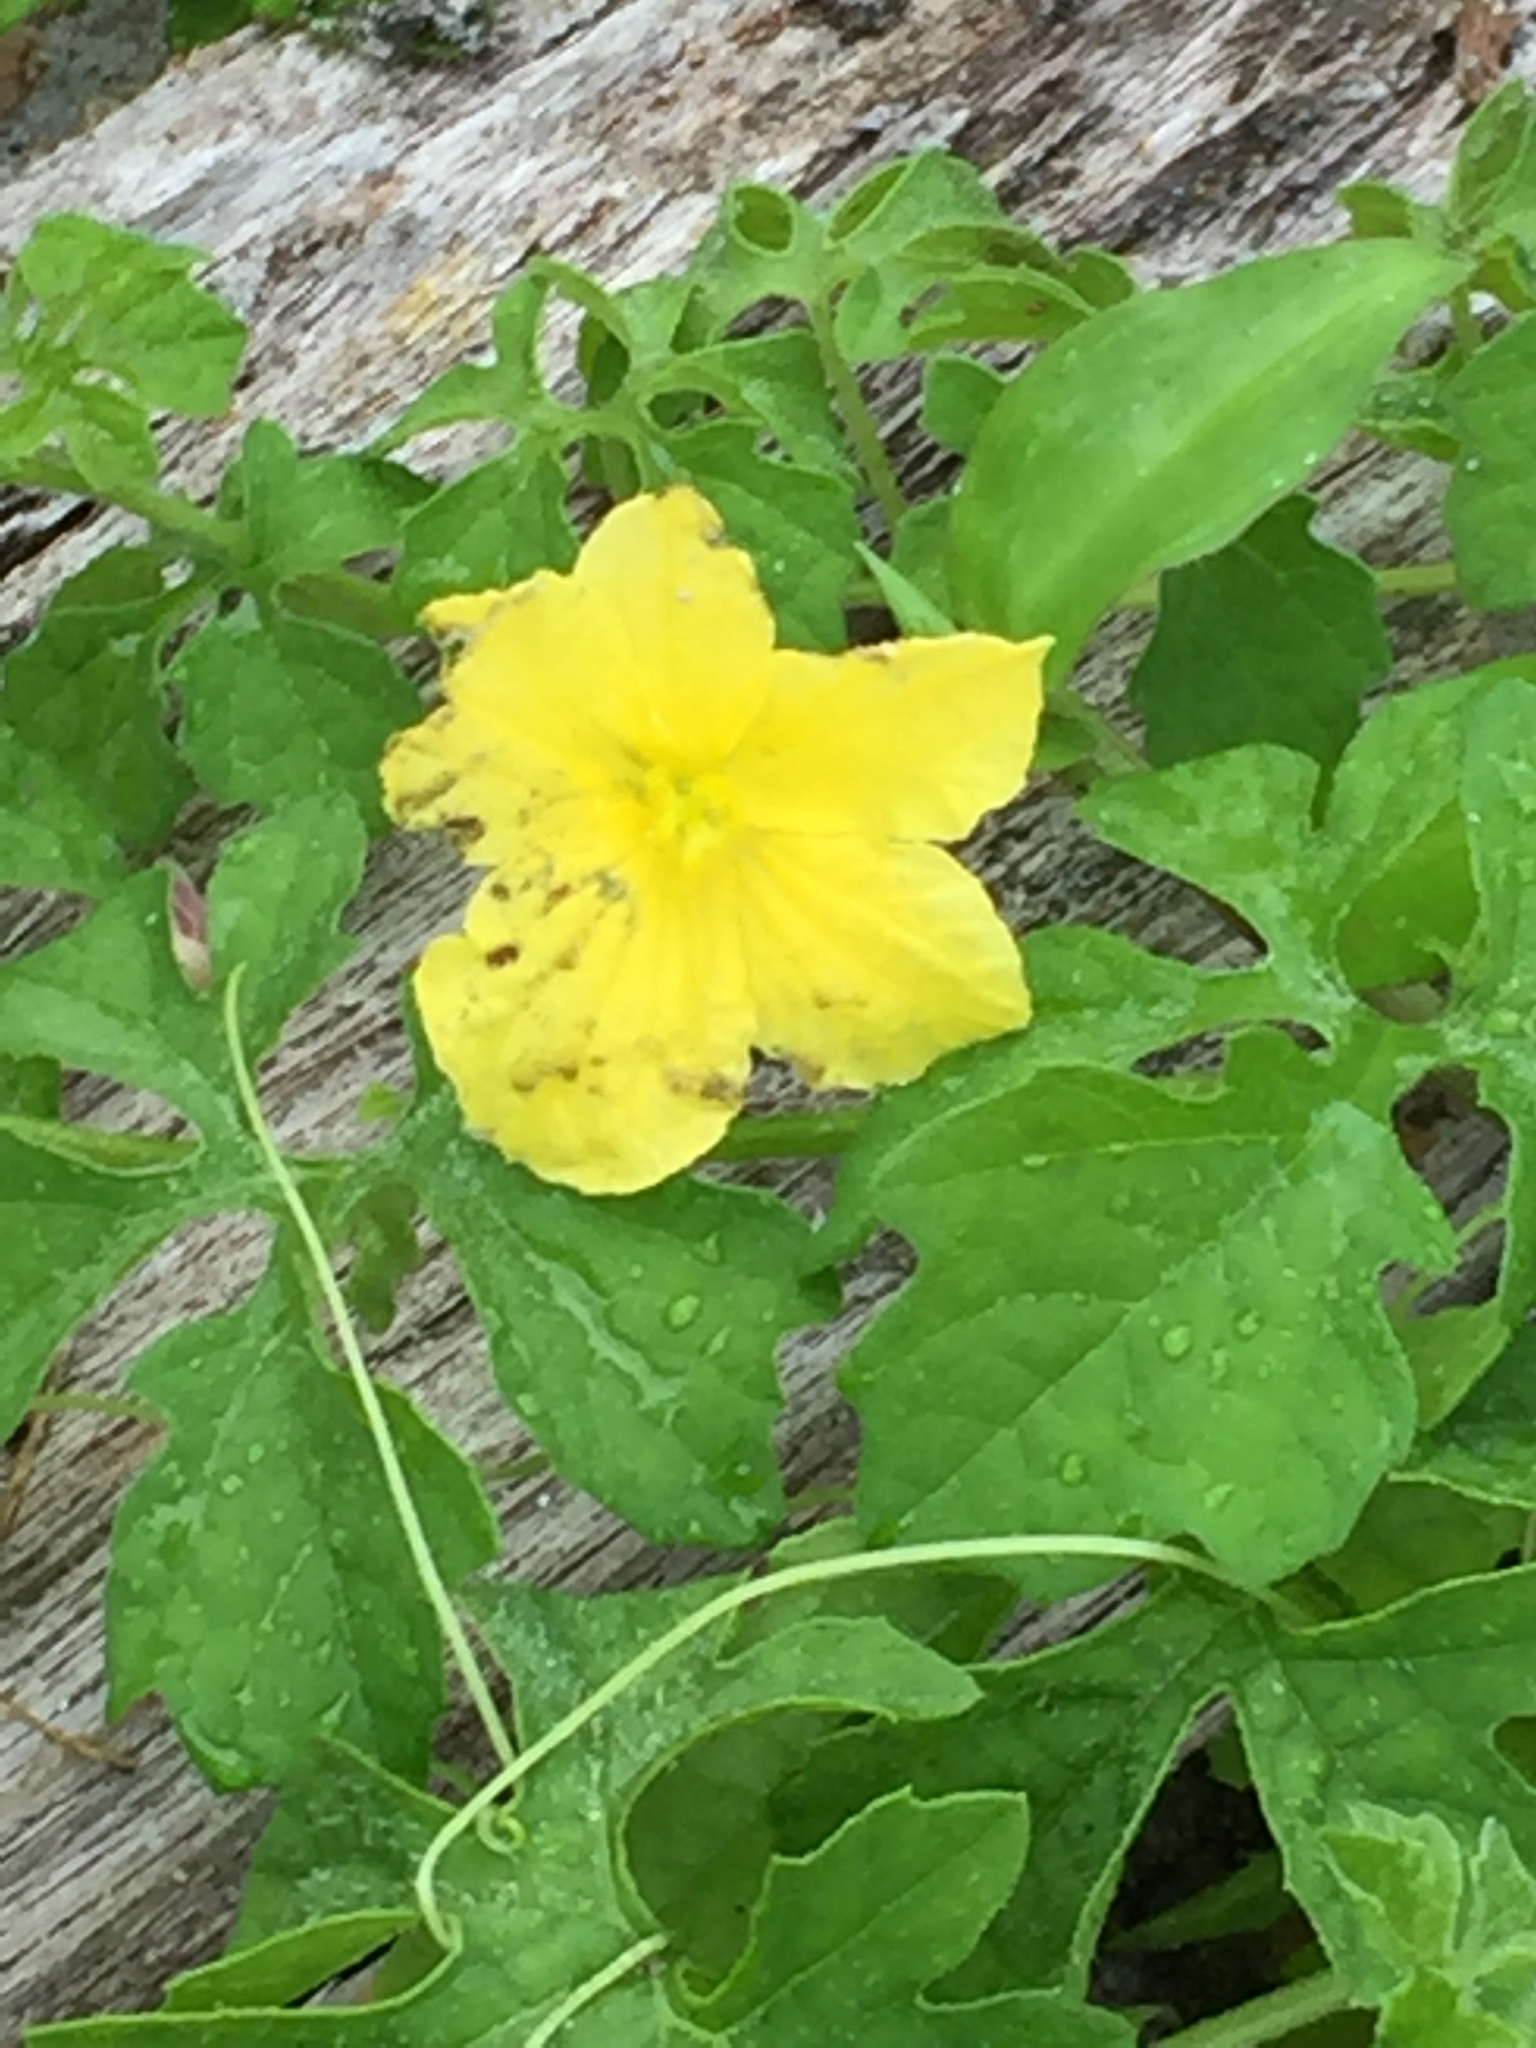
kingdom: Plantae
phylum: Tracheophyta
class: Magnoliopsida
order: Cucurbitales
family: Cucurbitaceae
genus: Momordica
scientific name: Momordica charantia
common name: Balsampear
